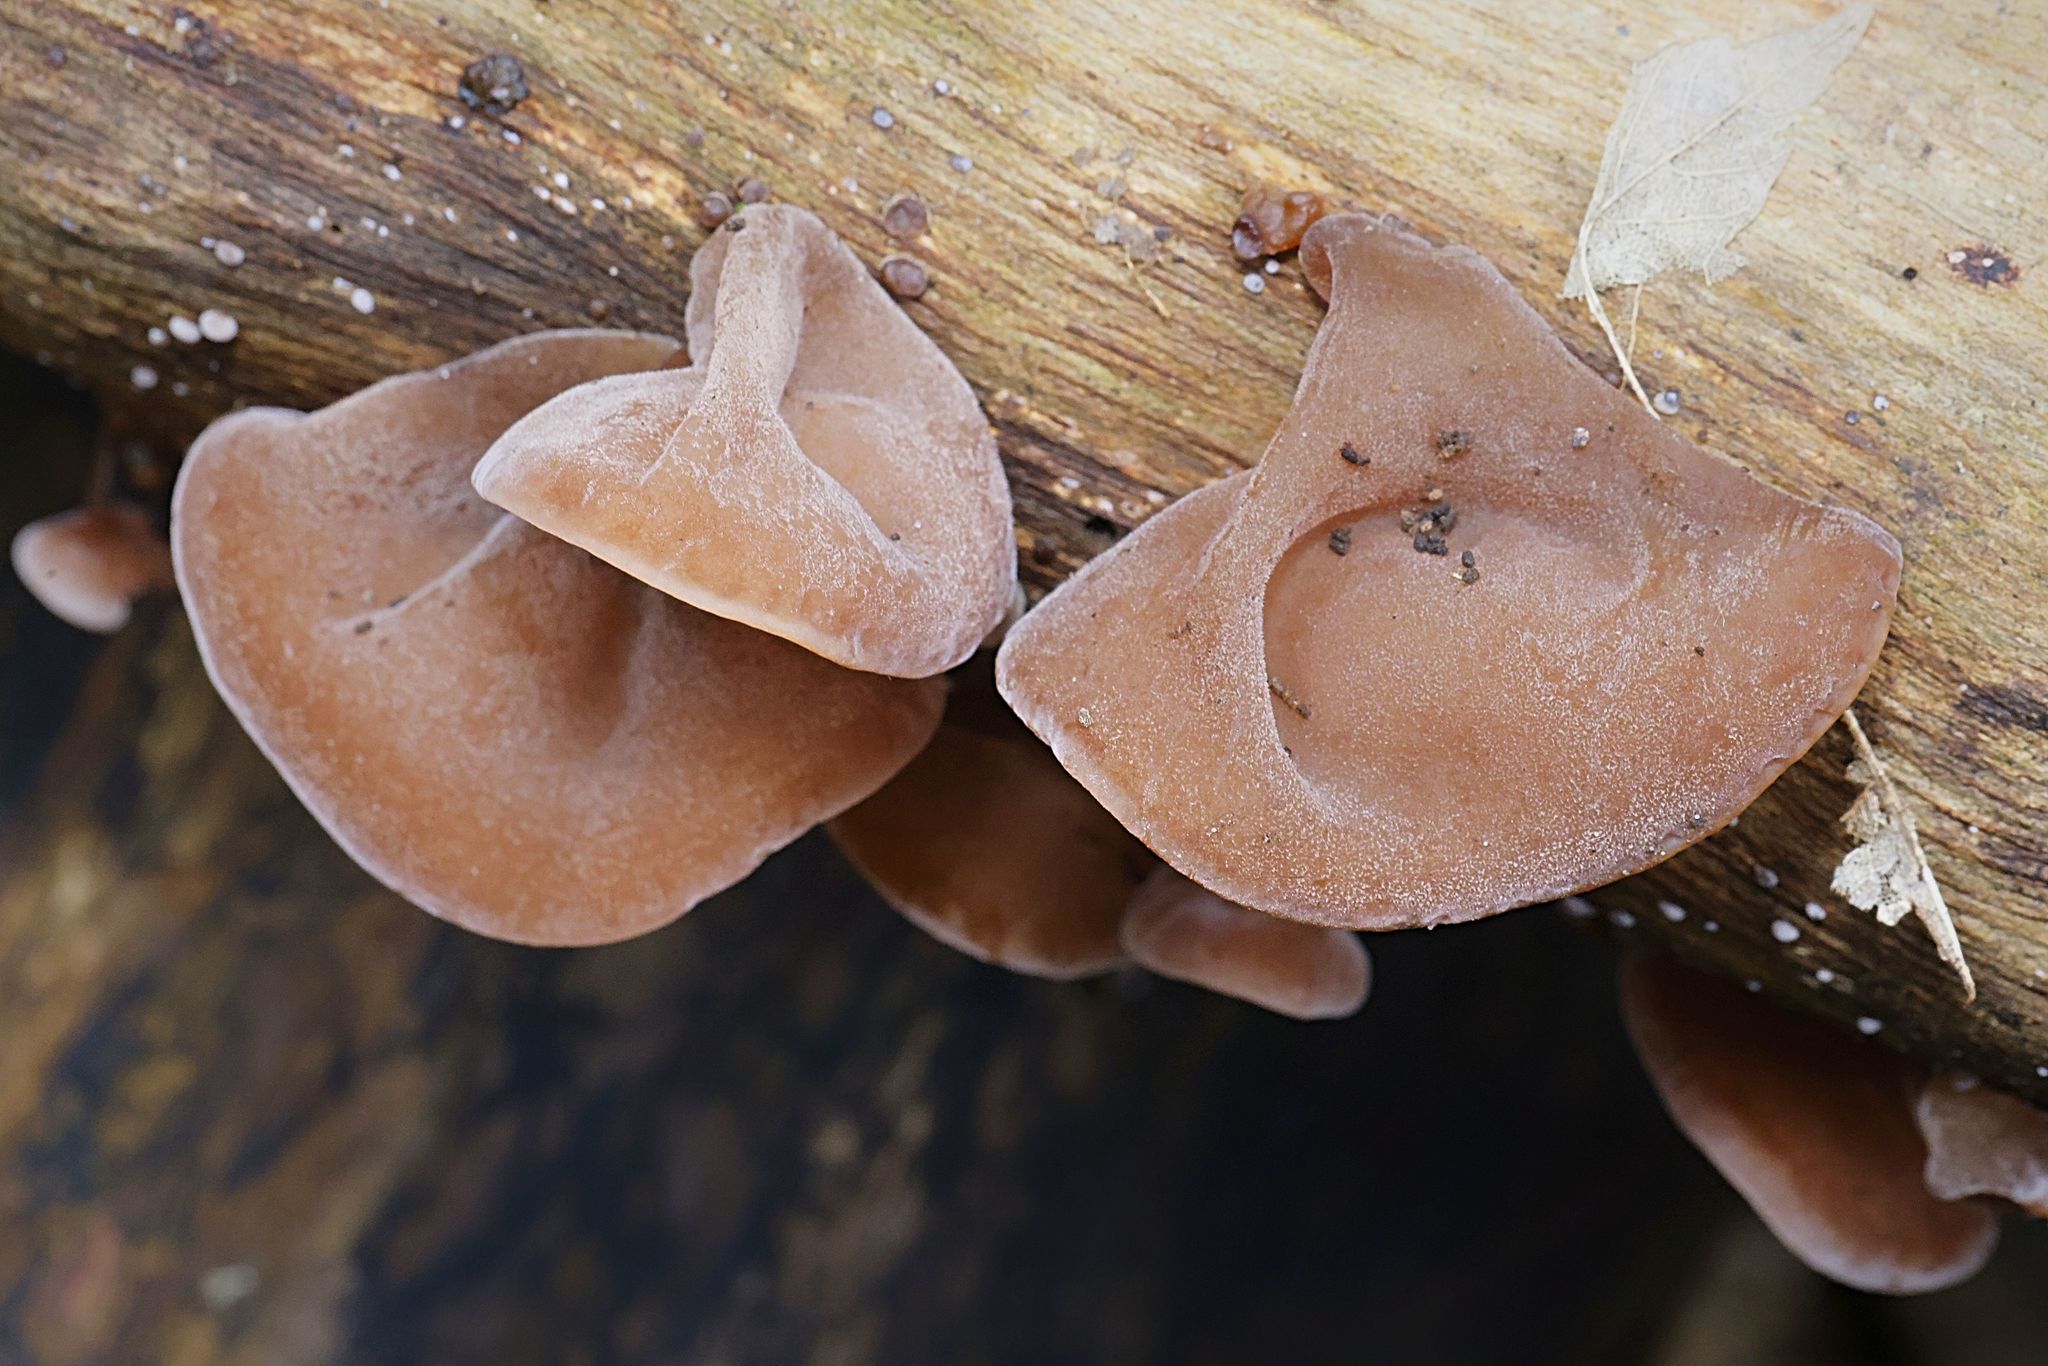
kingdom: Fungi
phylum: Basidiomycota
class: Agaricomycetes
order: Auriculariales
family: Auriculariaceae
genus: Auricularia
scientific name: Auricularia auricula-judae
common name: Jelly ear
